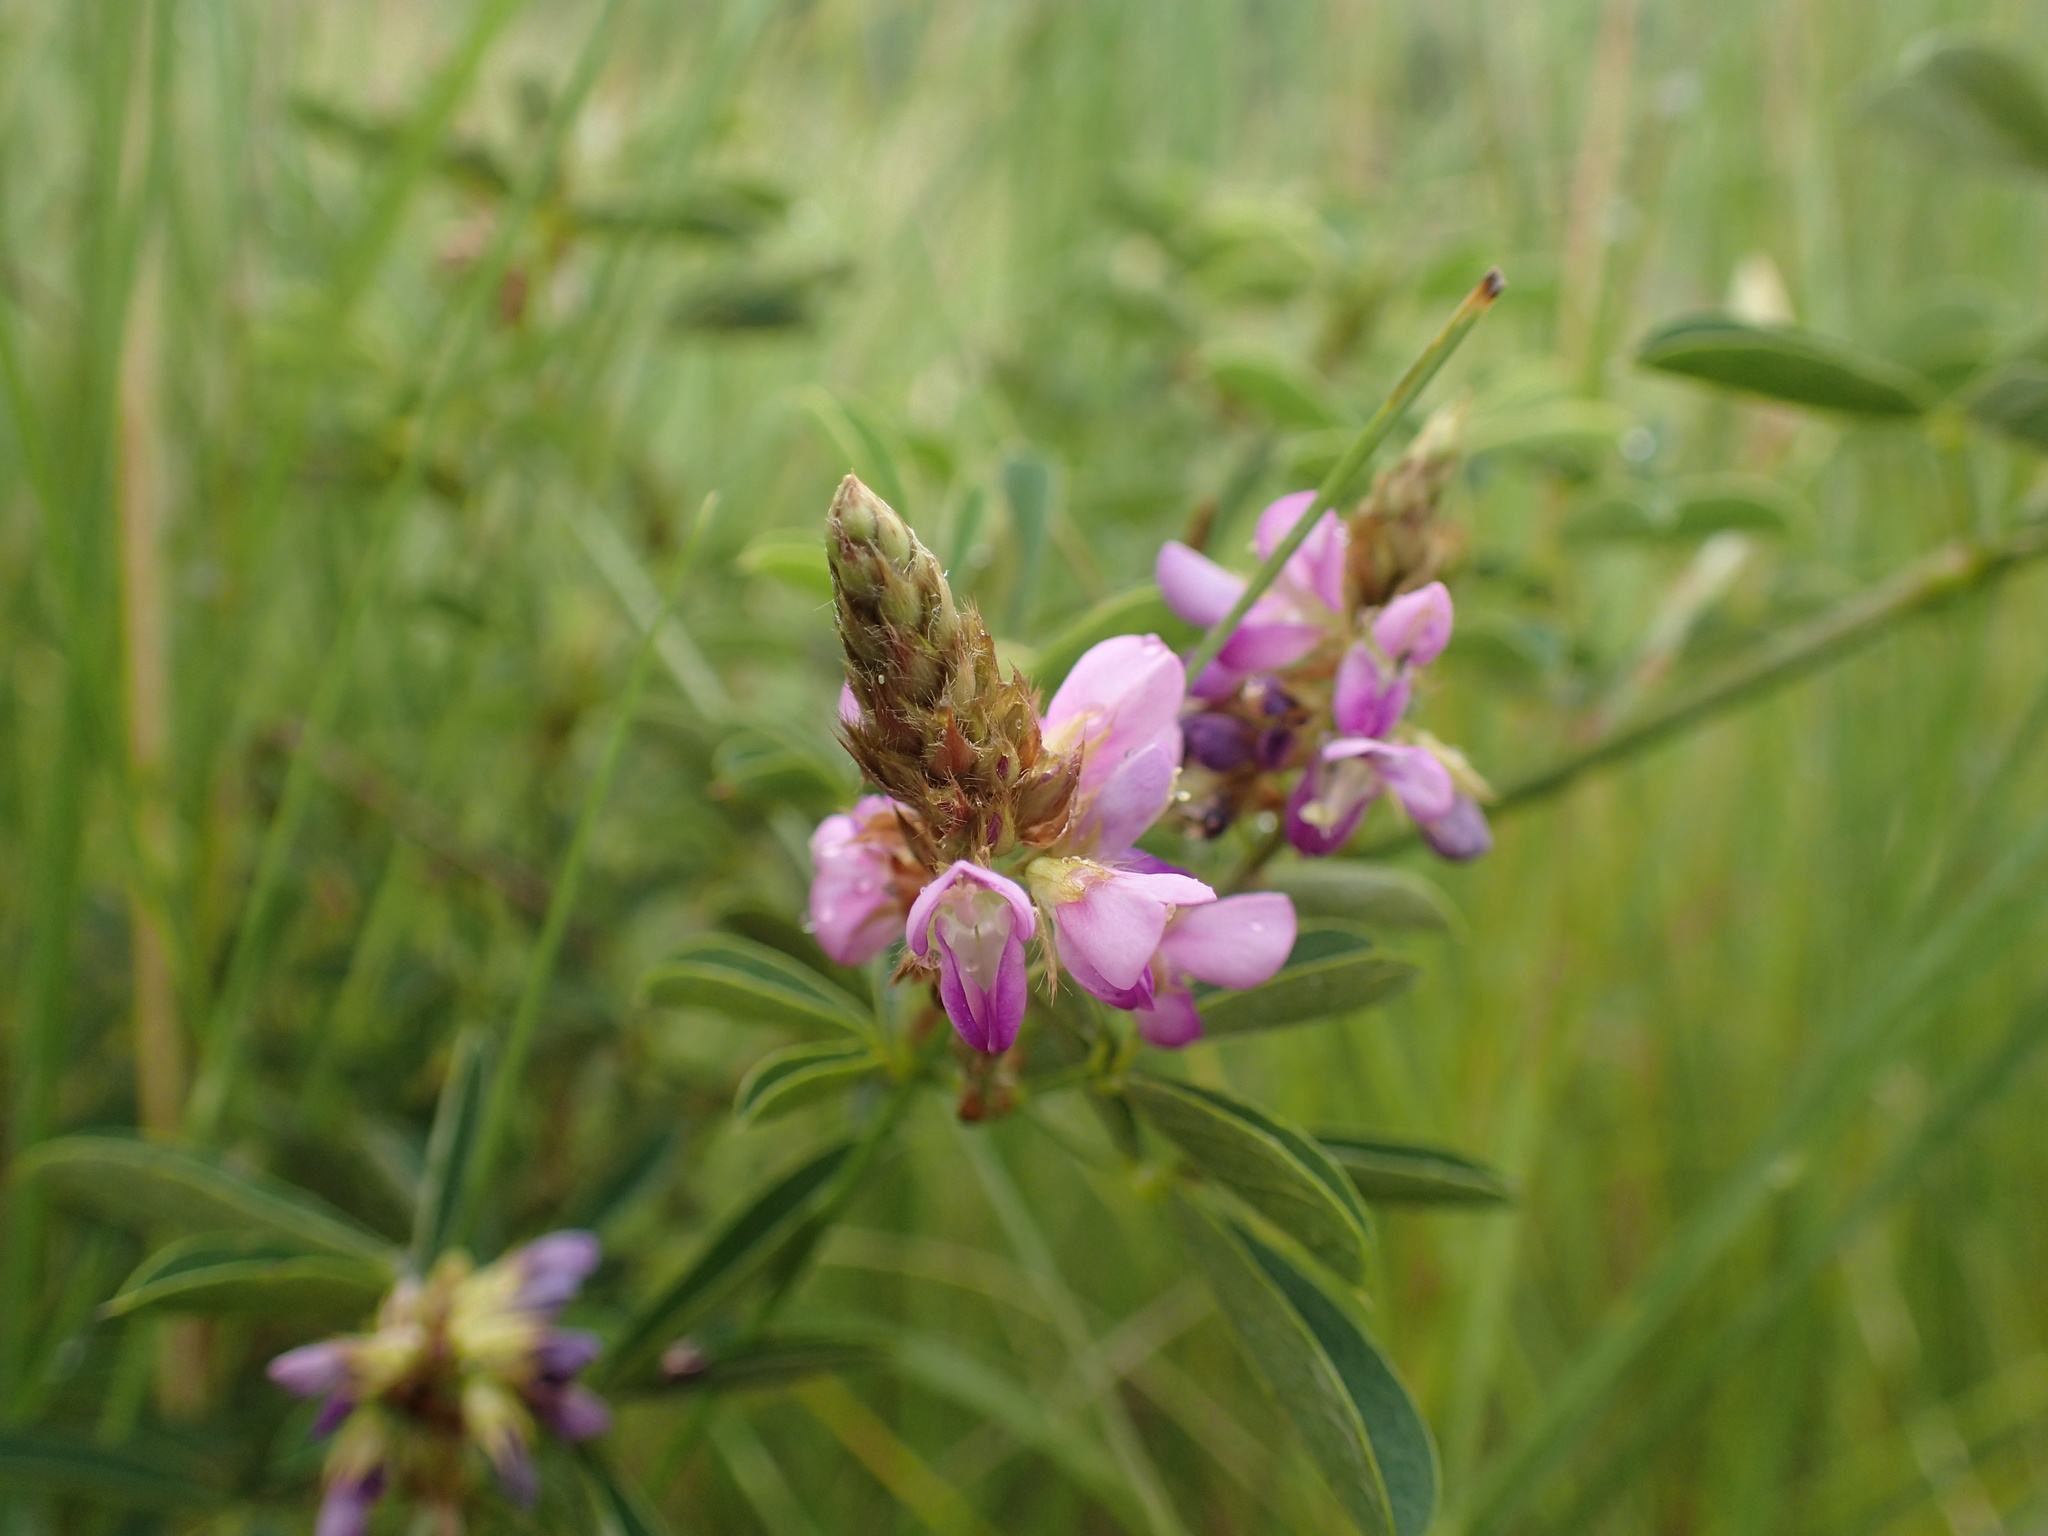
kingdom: Plantae
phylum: Tracheophyta
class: Magnoliopsida
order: Fabales
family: Fabaceae
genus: Grona
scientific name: Grona caffra
